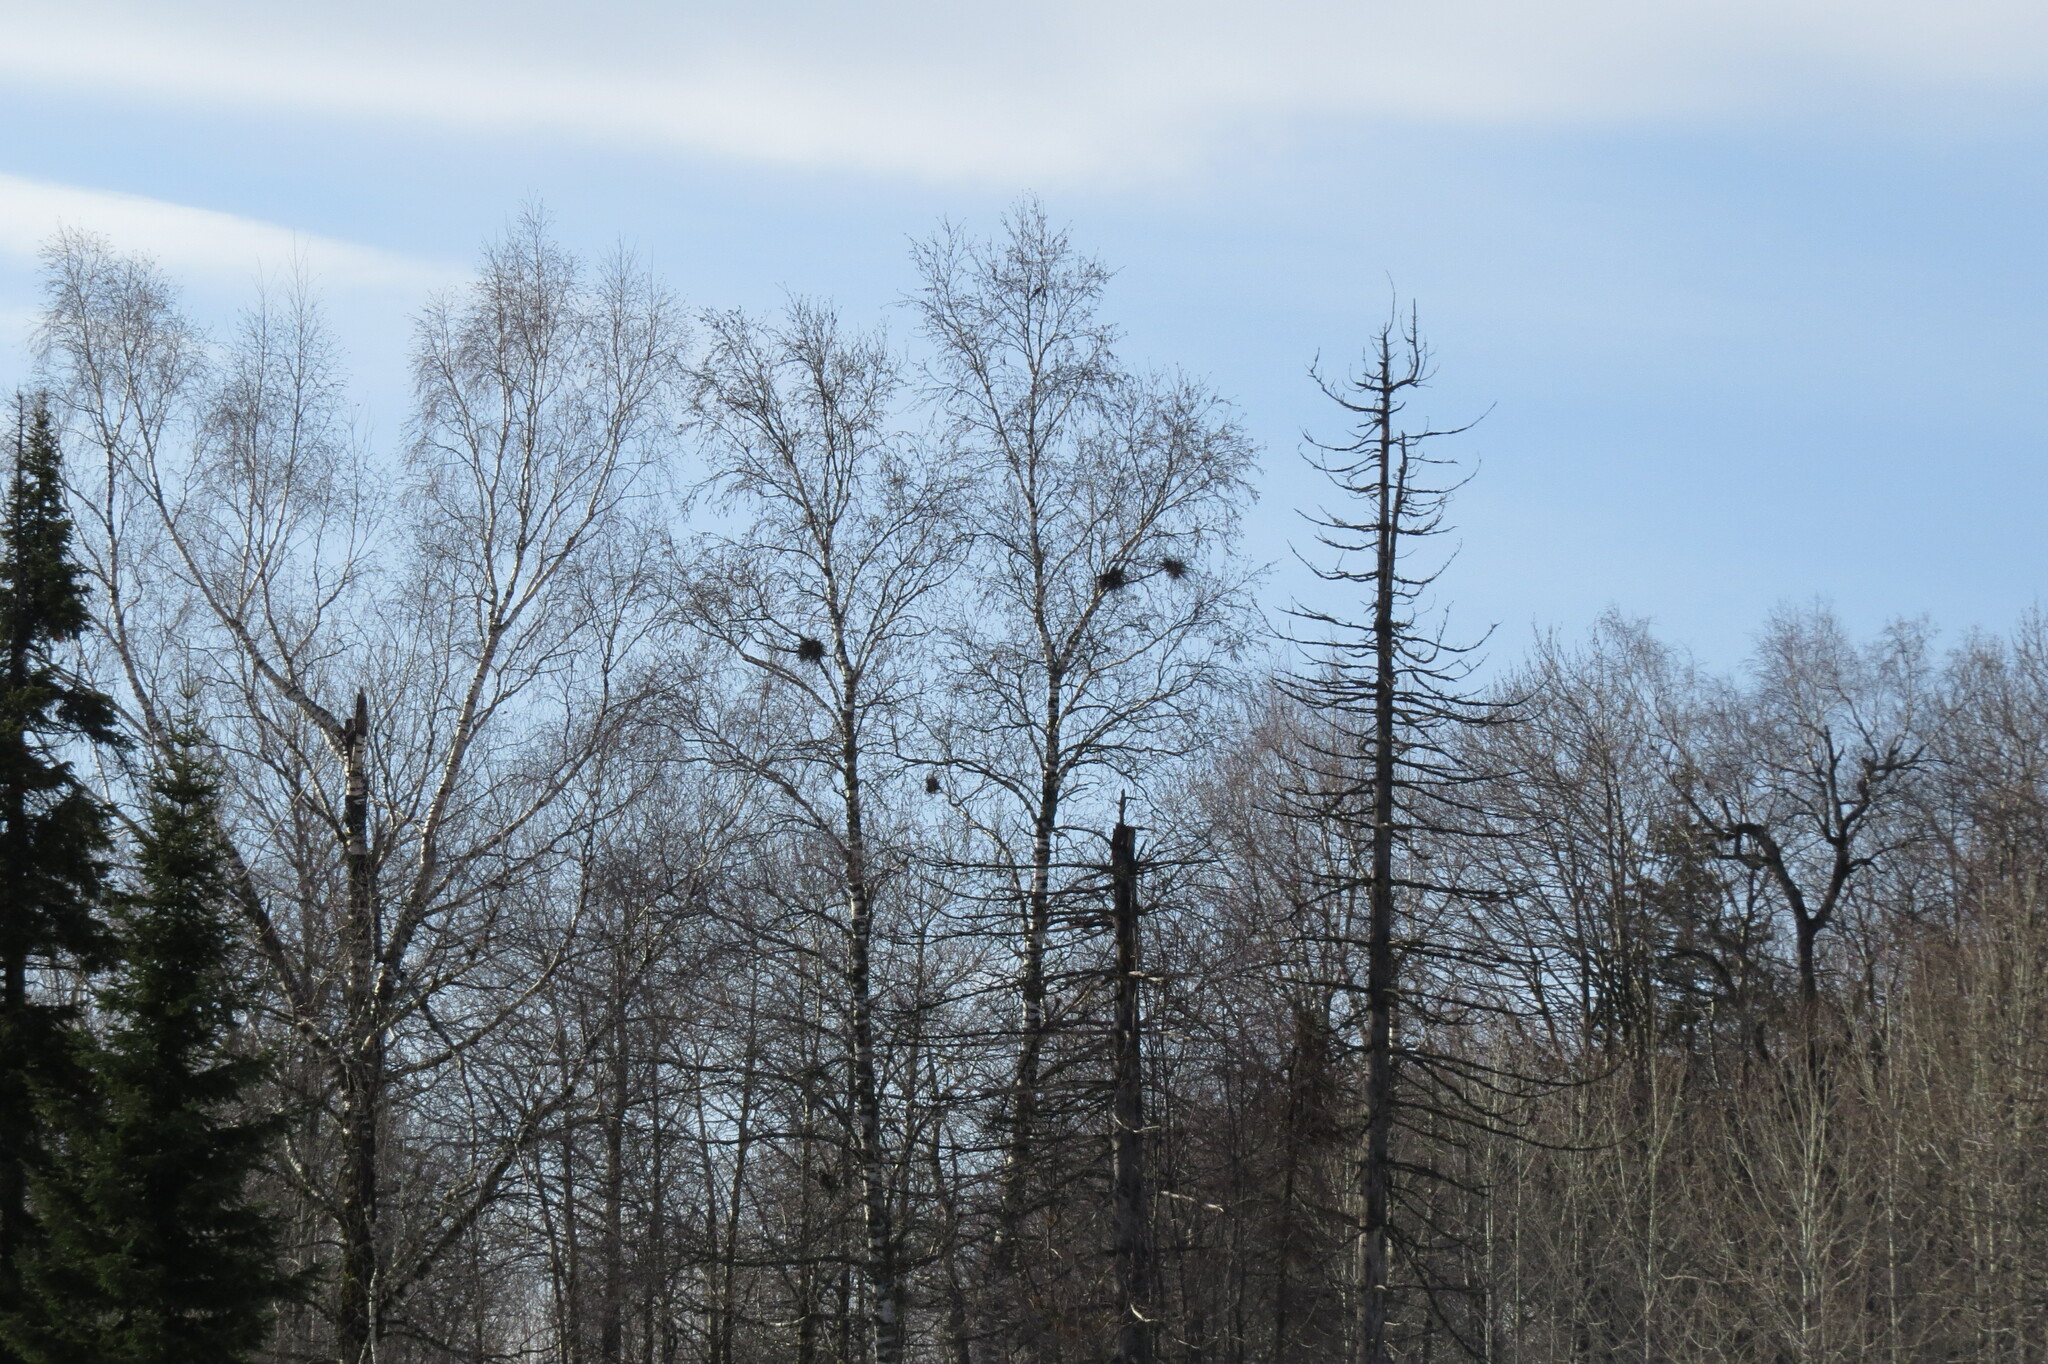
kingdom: Plantae
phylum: Tracheophyta
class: Magnoliopsida
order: Fagales
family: Betulaceae
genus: Betula
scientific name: Betula pubescens
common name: Downy birch
